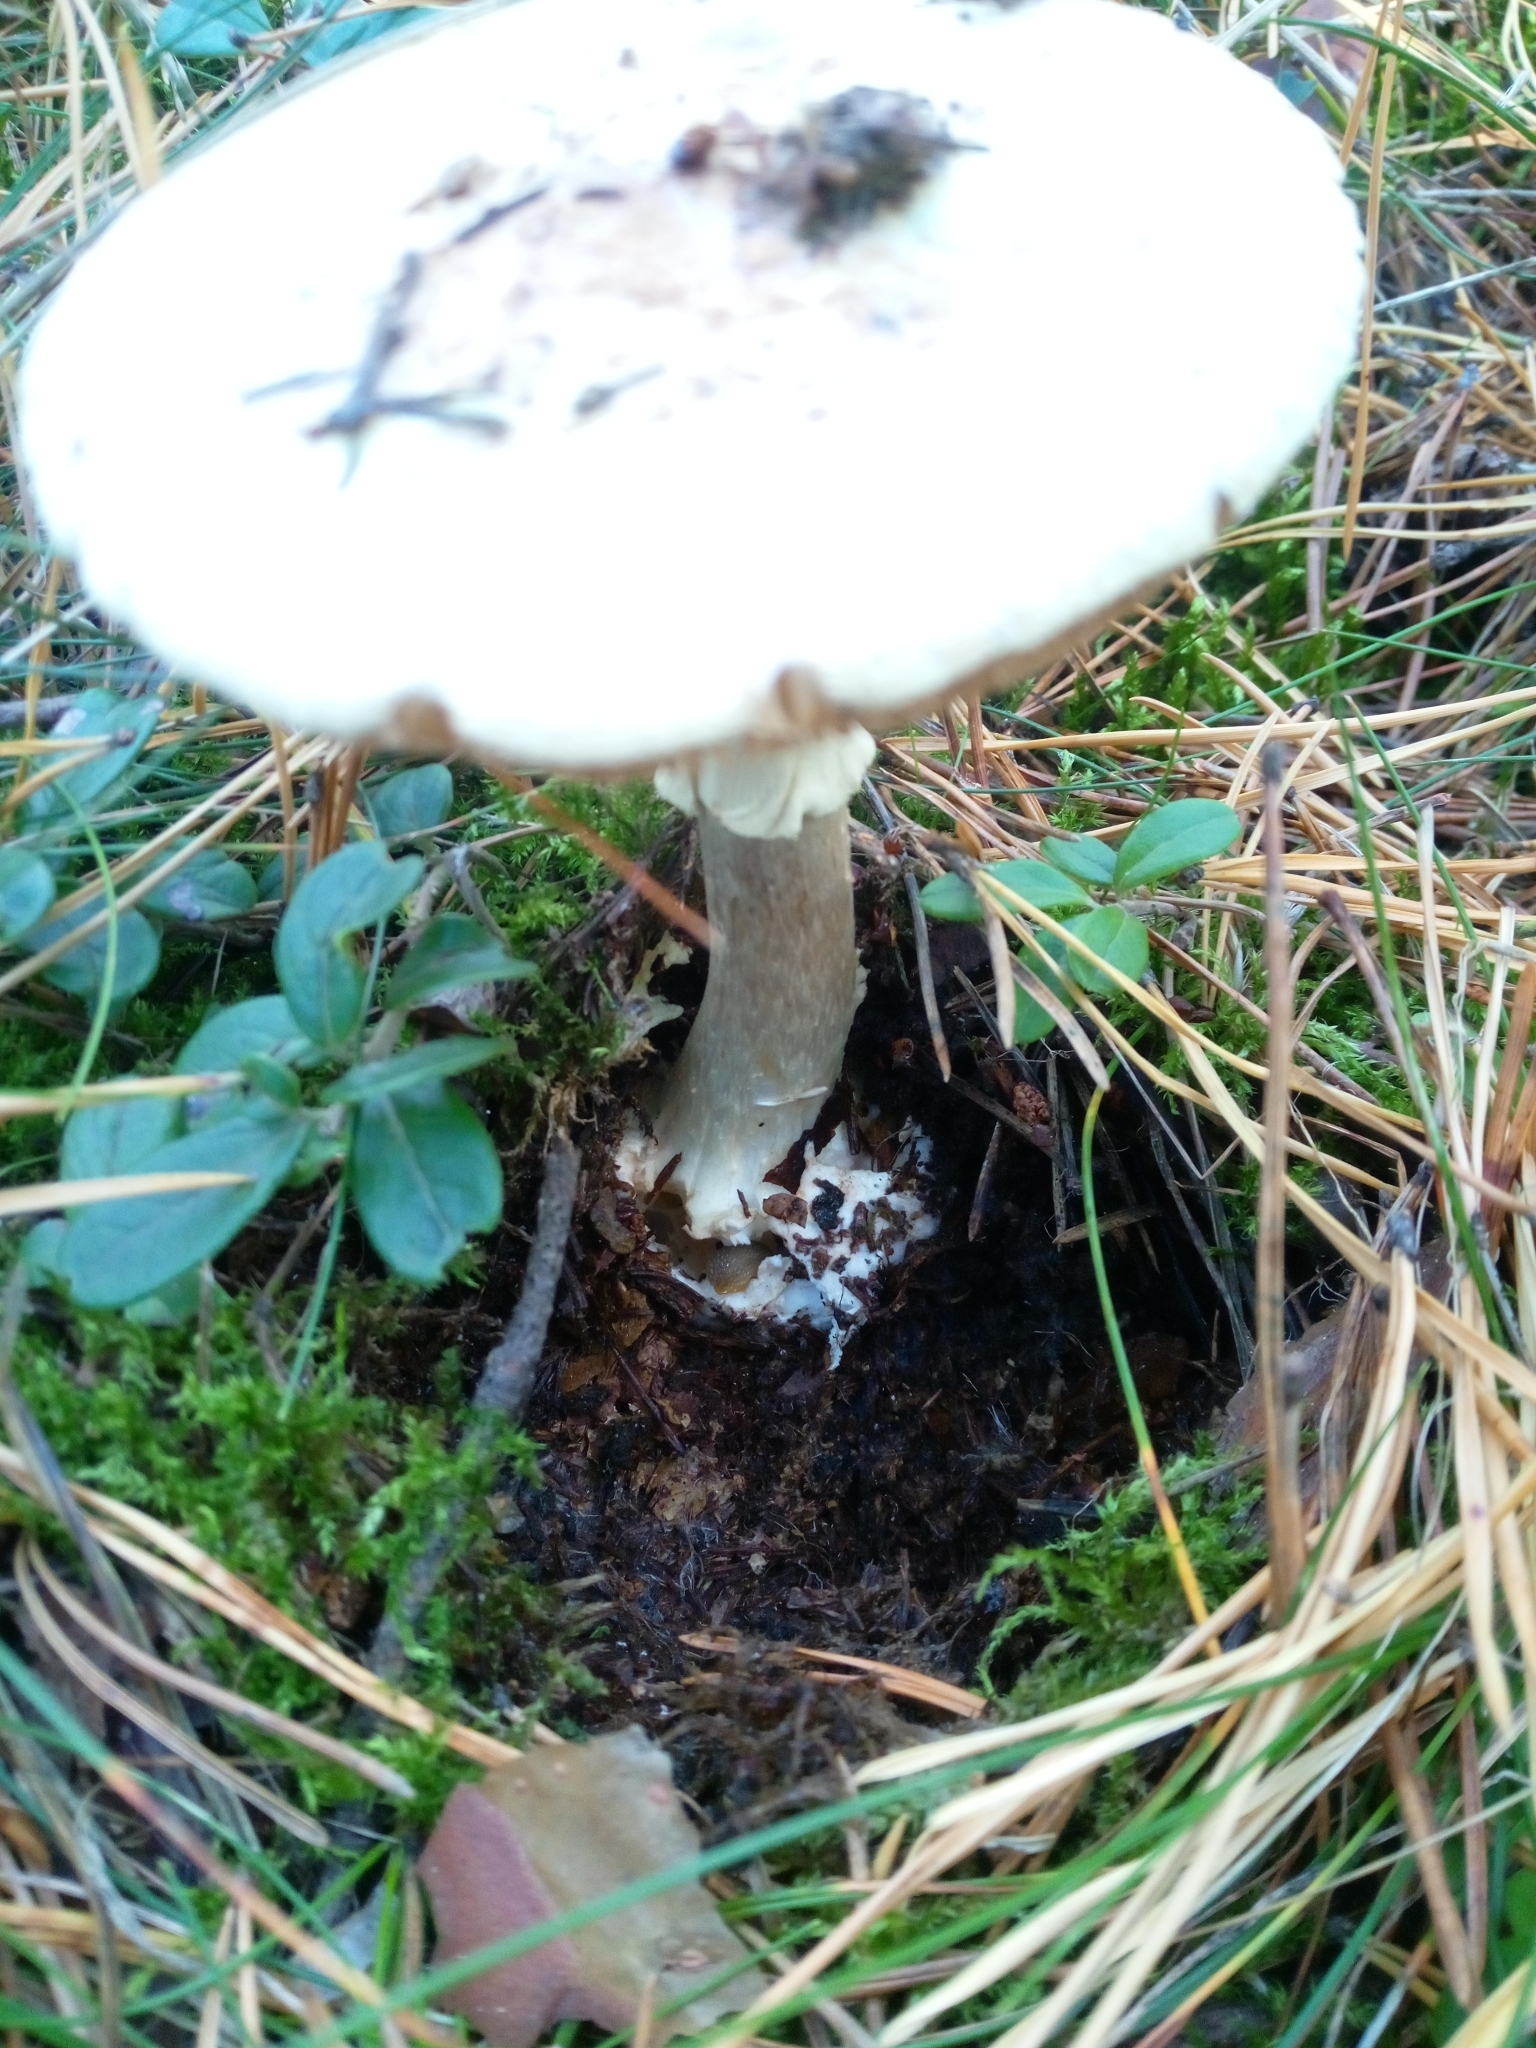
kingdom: Fungi
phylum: Basidiomycota
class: Agaricomycetes
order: Agaricales
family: Amanitaceae
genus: Amanita
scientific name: Amanita citrina
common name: False death-cap
